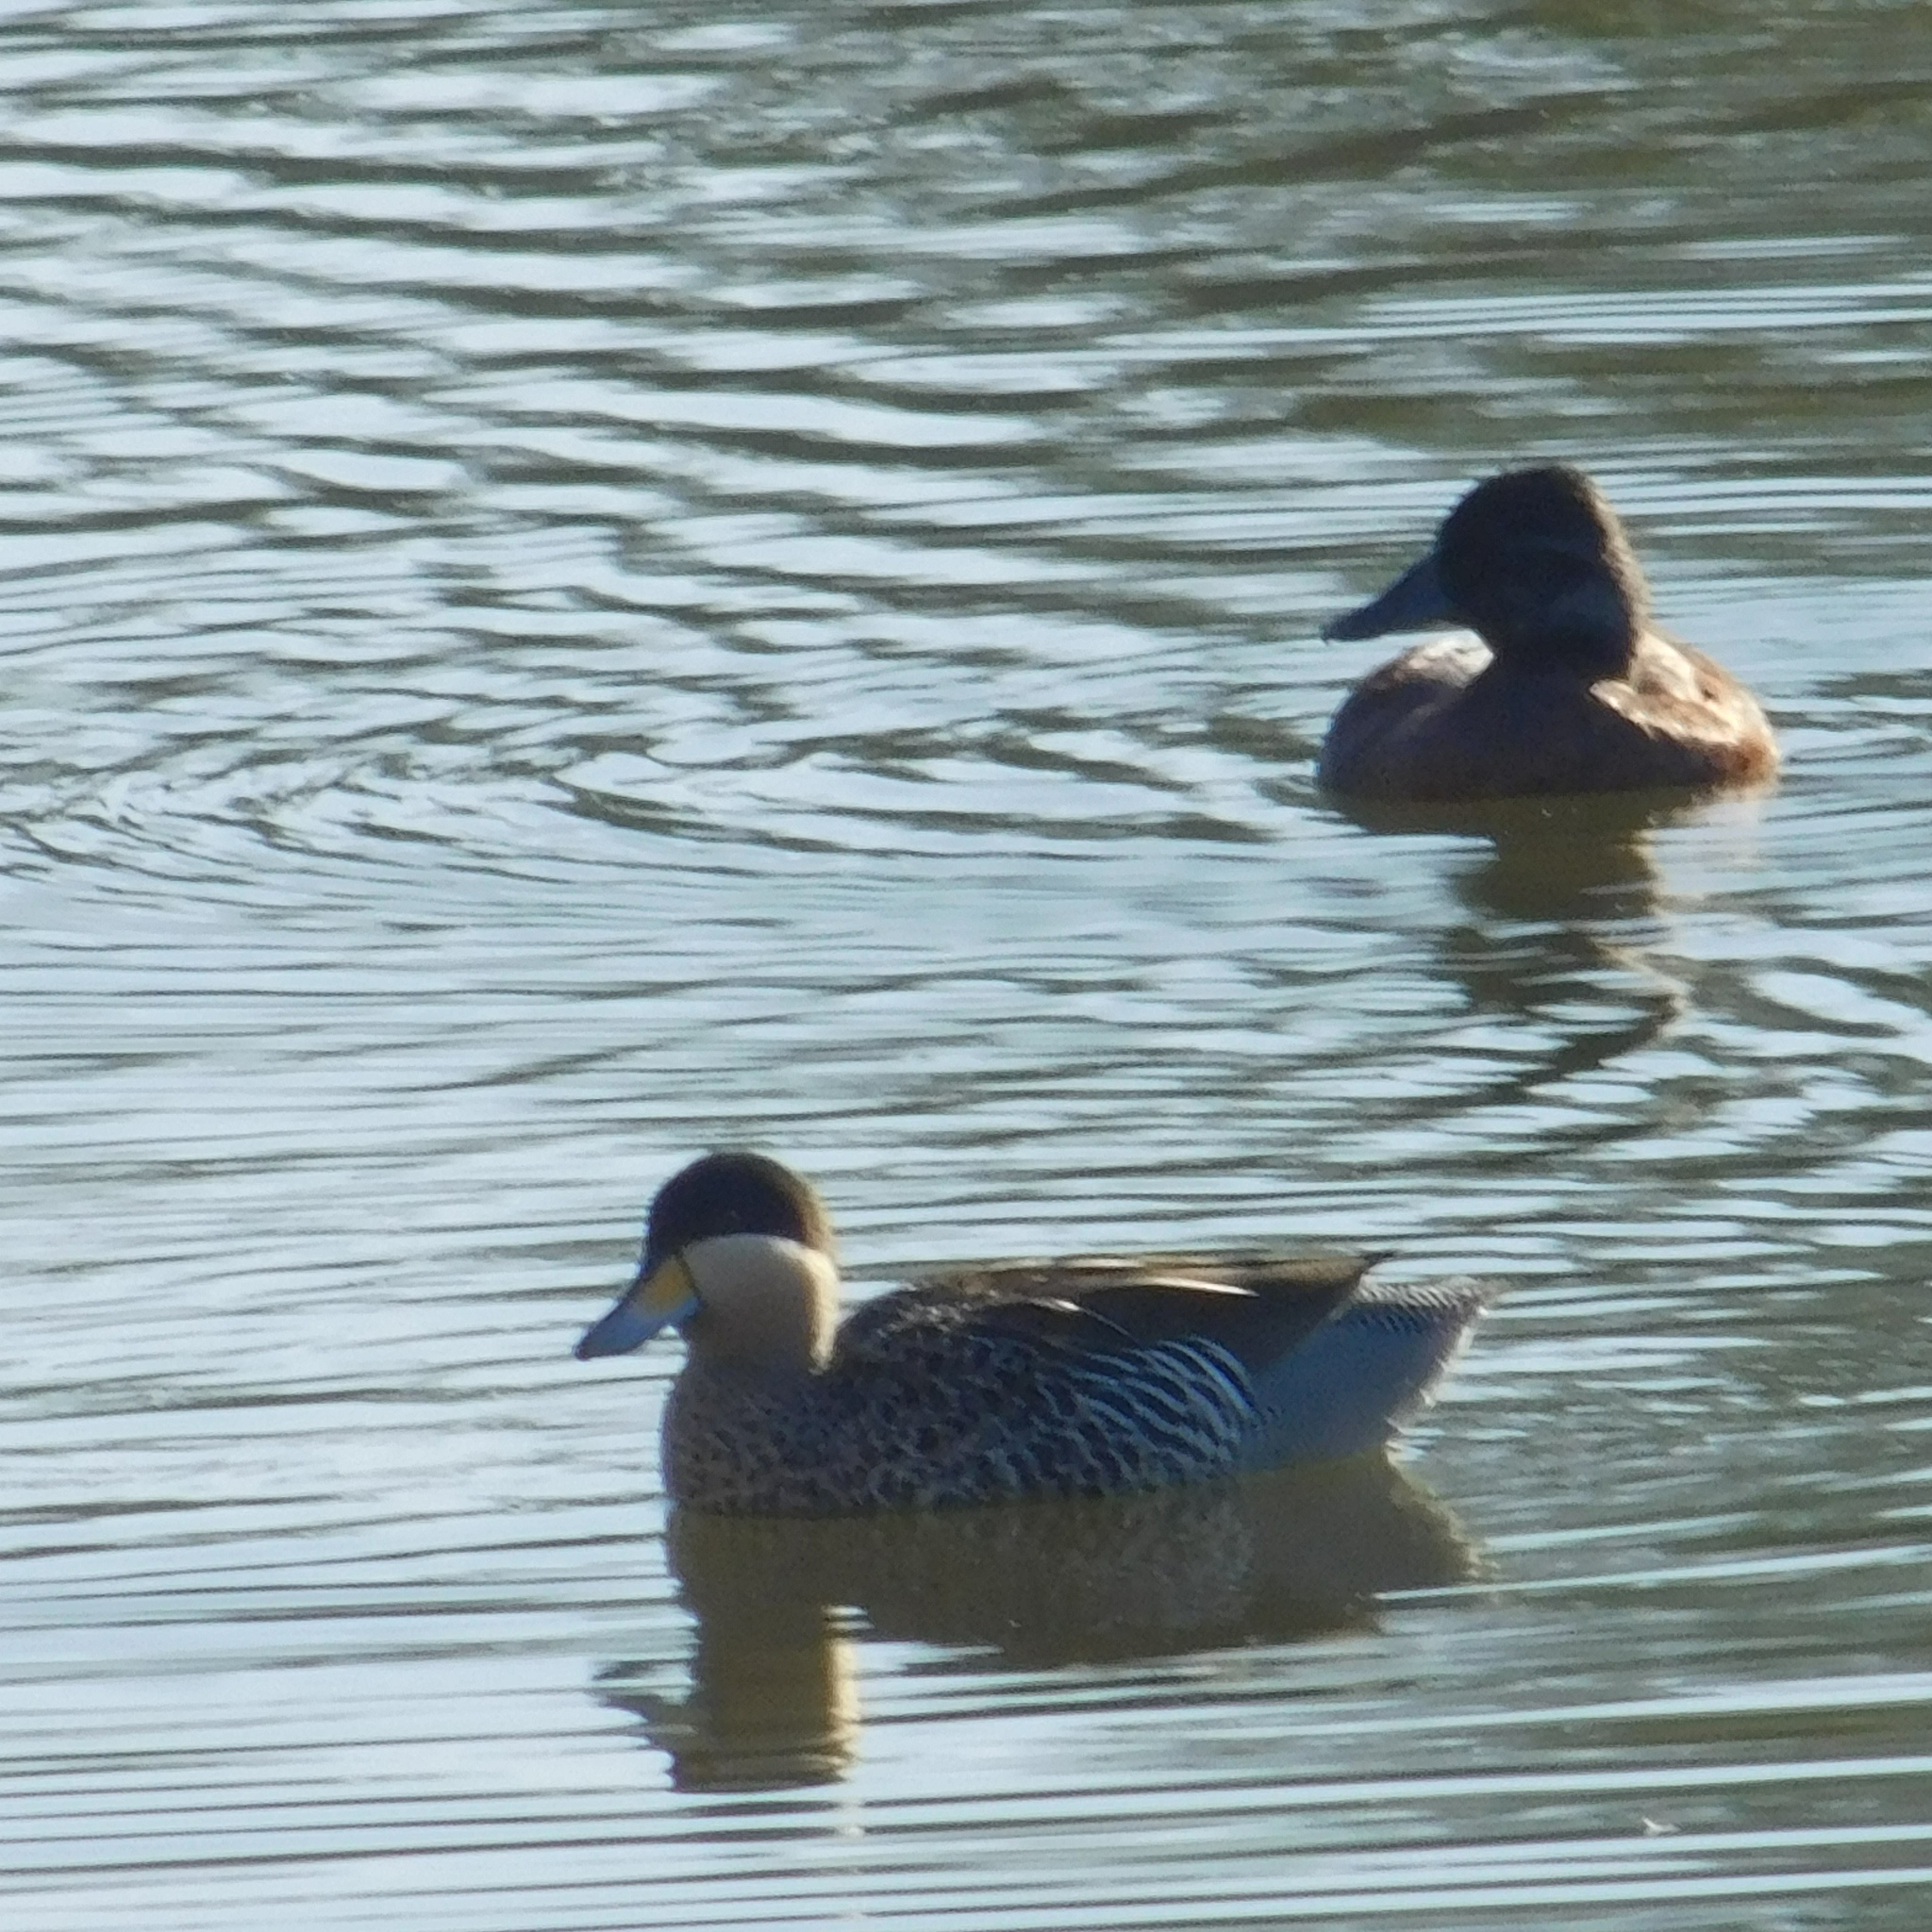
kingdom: Animalia
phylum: Chordata
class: Aves
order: Anseriformes
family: Anatidae
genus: Spatula
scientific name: Spatula versicolor
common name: Silver teal
